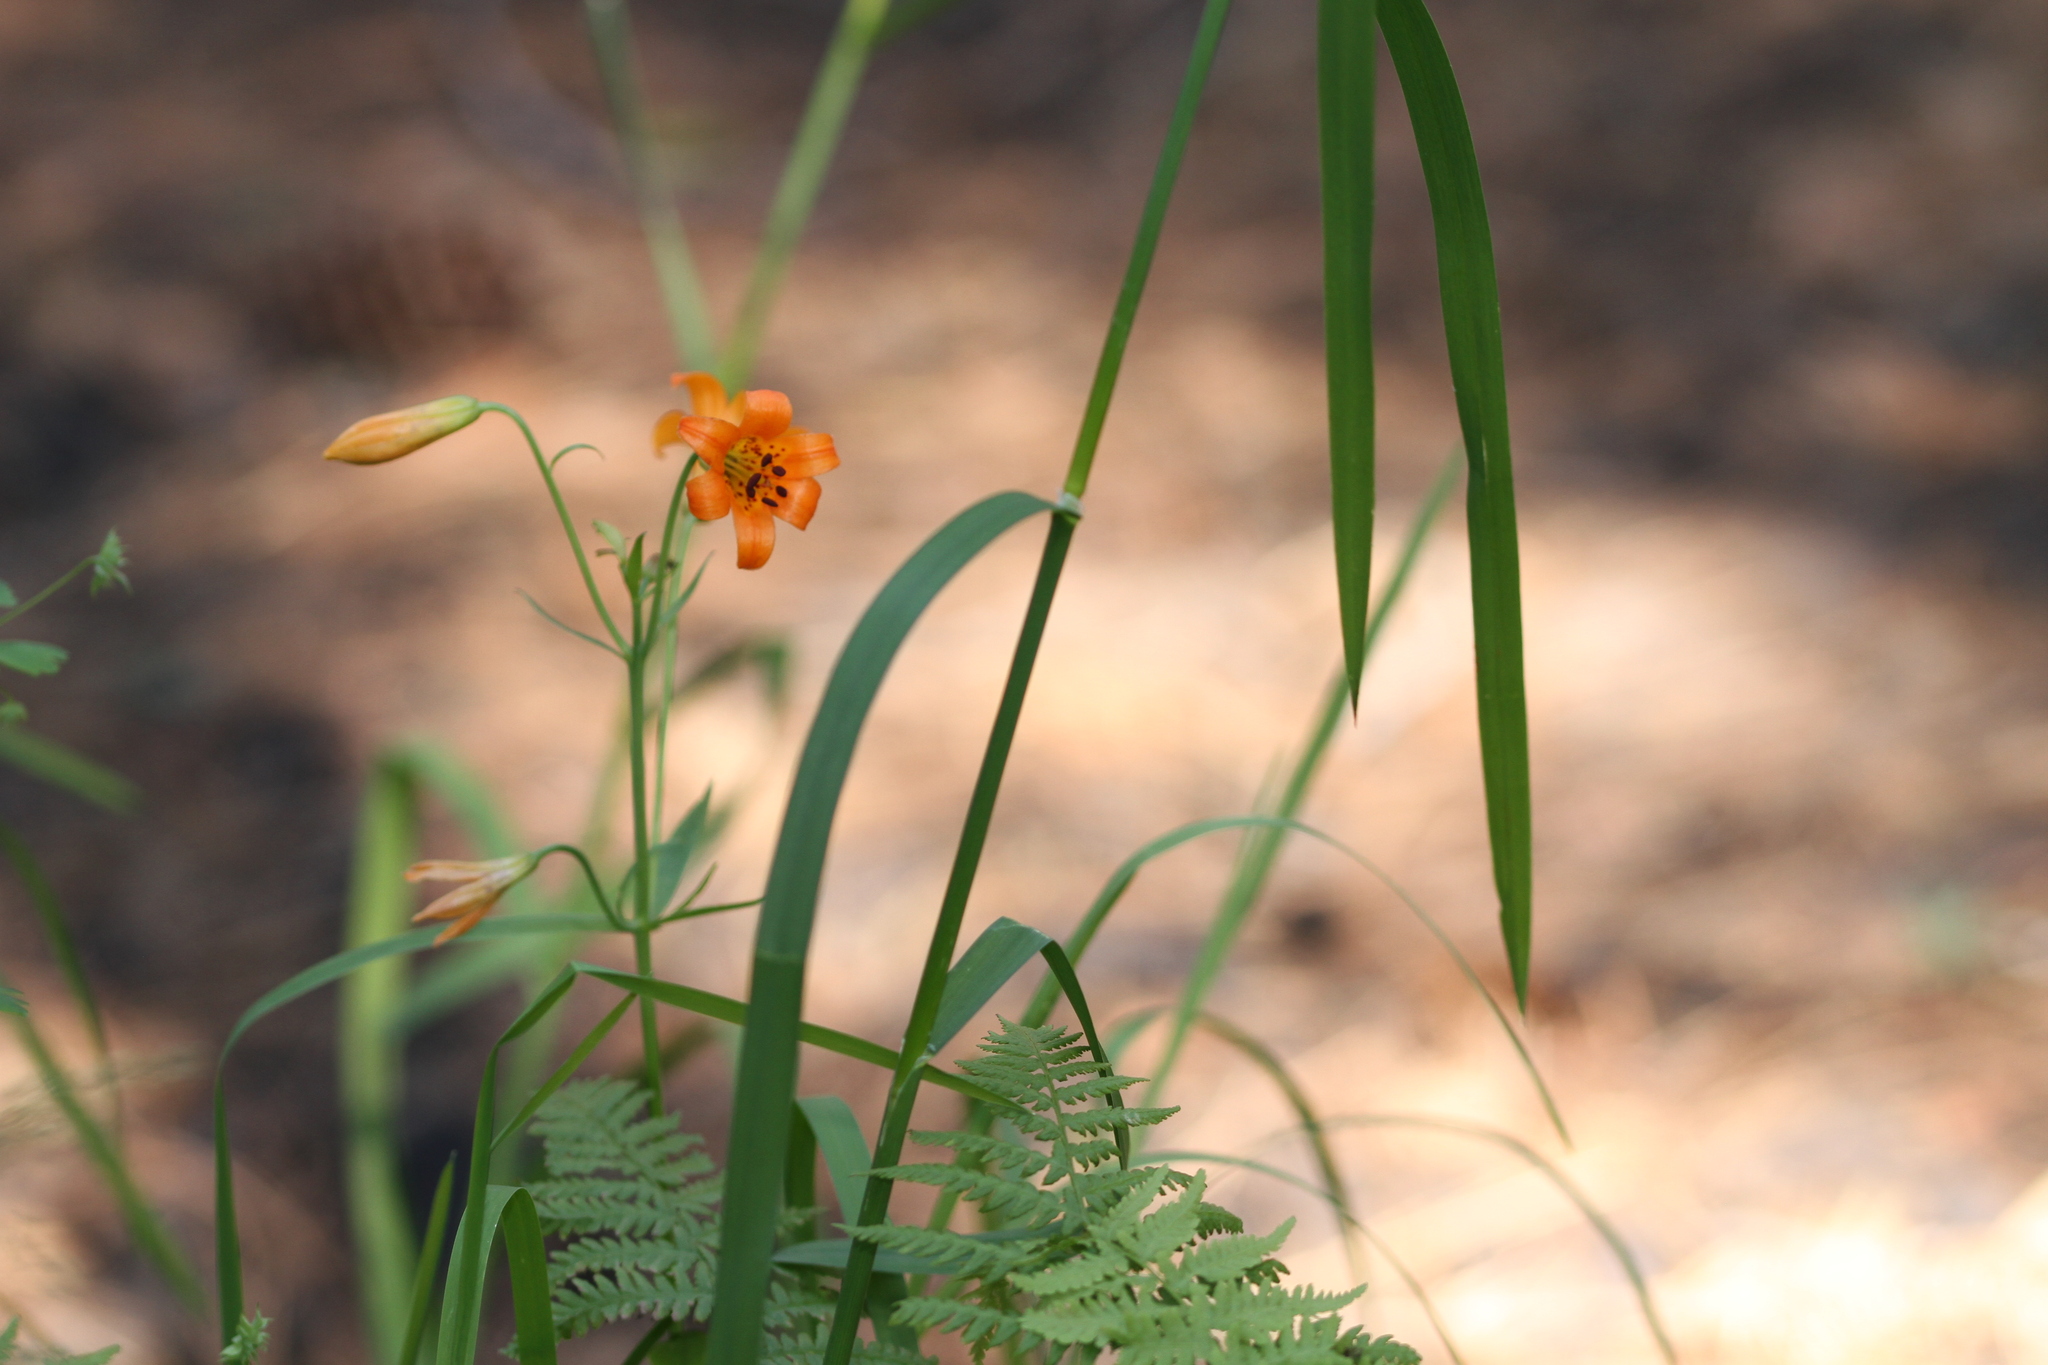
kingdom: Plantae
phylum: Tracheophyta
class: Liliopsida
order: Liliales
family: Liliaceae
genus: Lilium
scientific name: Lilium parvum
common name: Alpine lily
